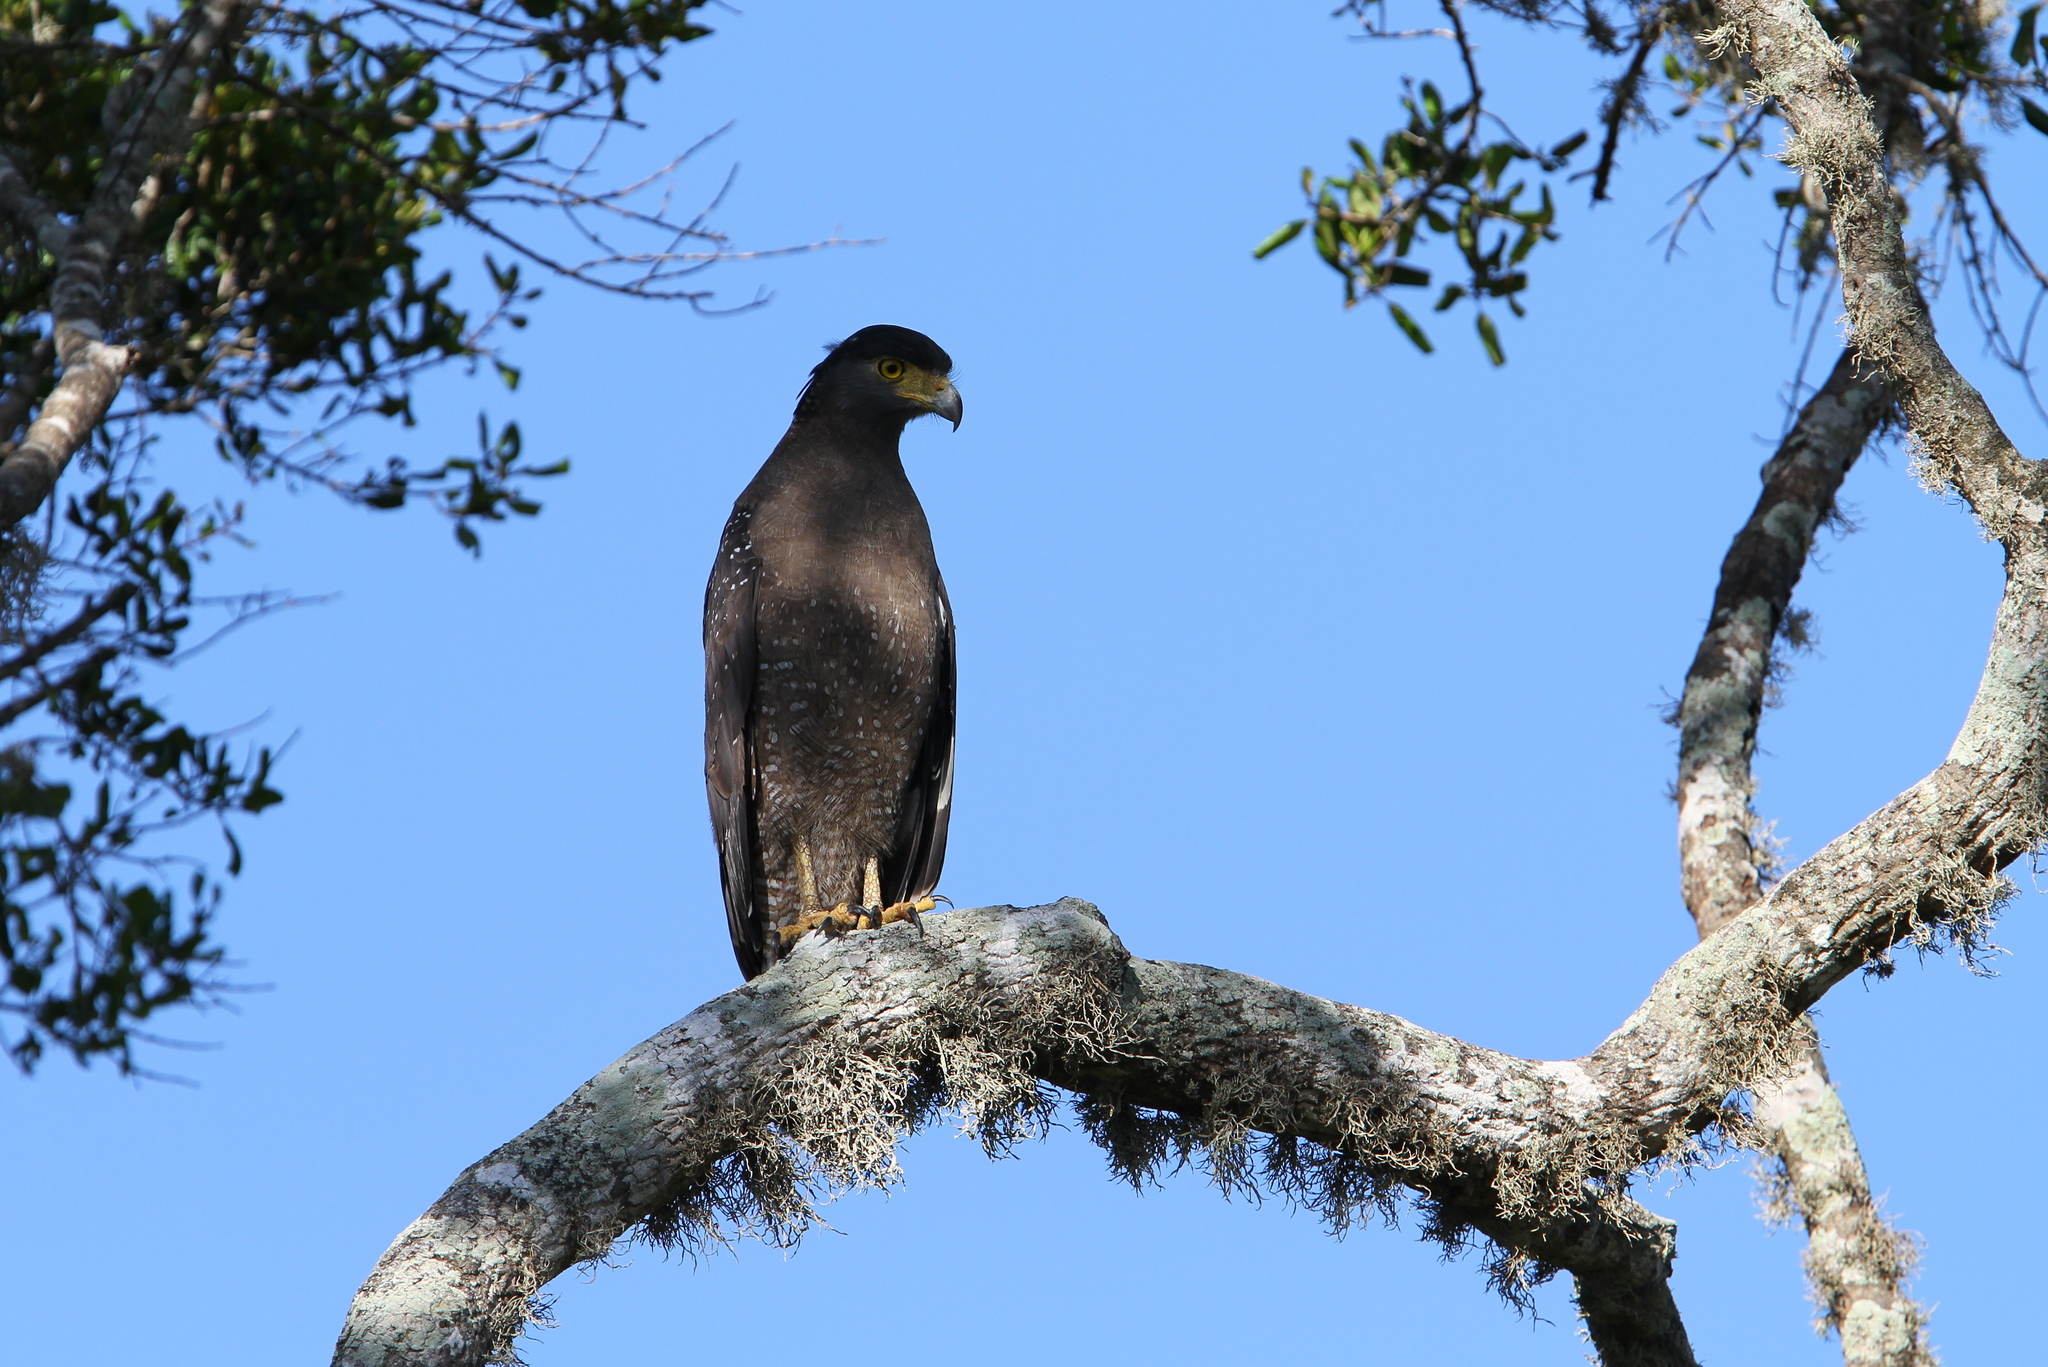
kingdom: Animalia
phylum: Chordata
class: Aves
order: Accipitriformes
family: Accipitridae
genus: Spilornis
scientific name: Spilornis cheela
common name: Crested serpent eagle
